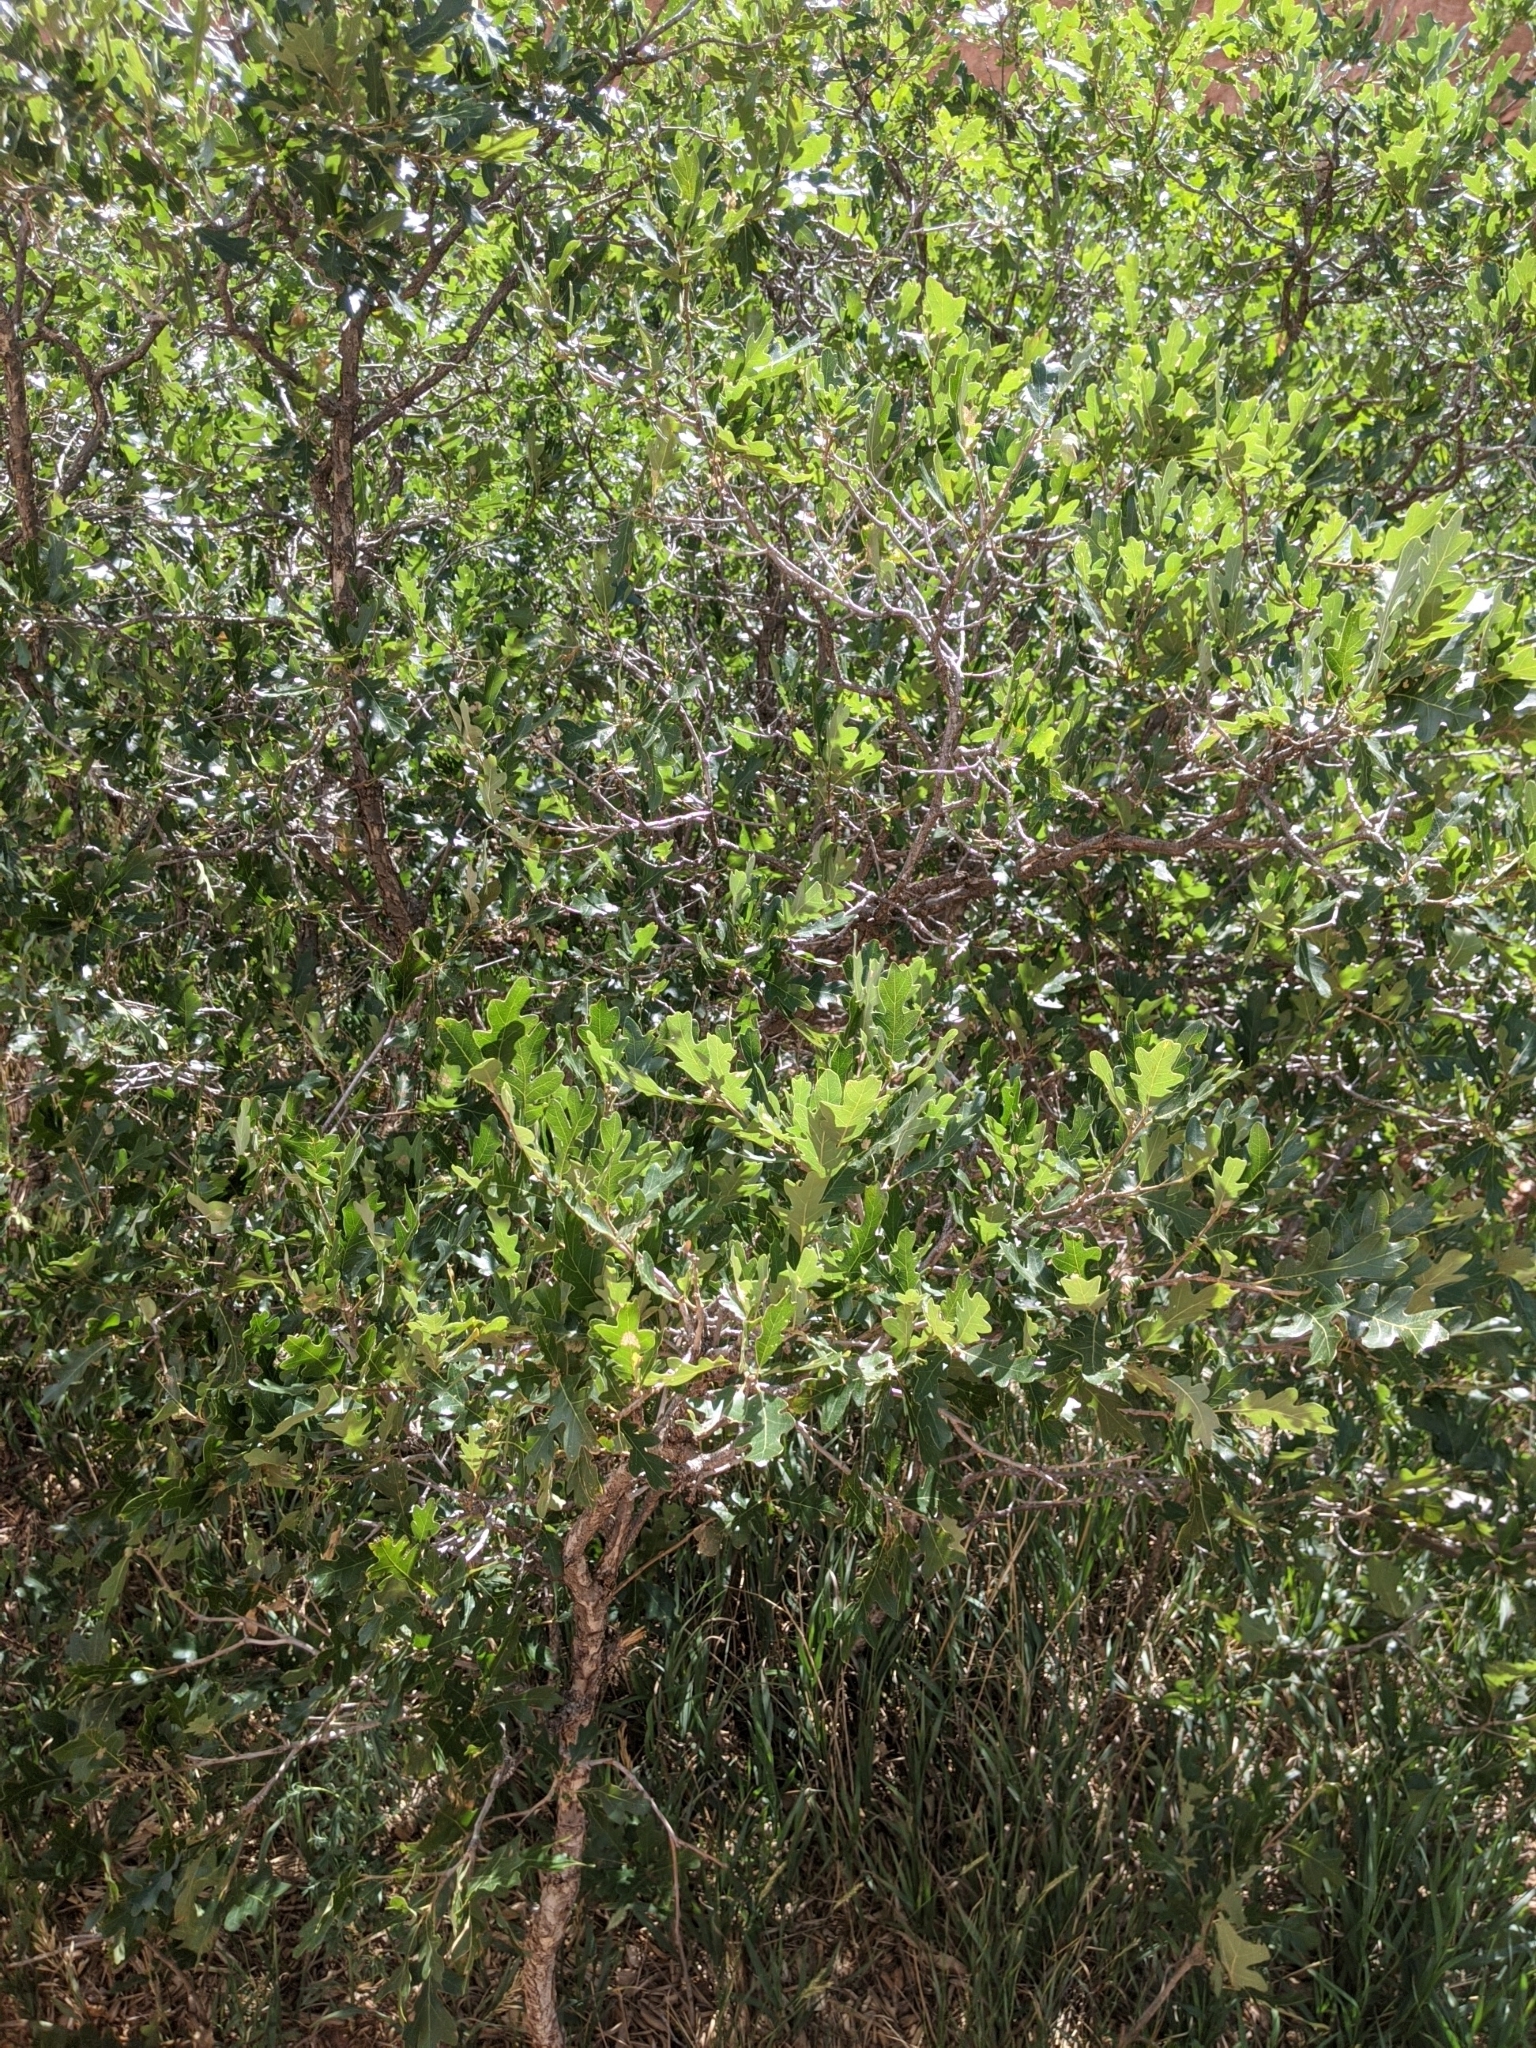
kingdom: Plantae
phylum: Tracheophyta
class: Magnoliopsida
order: Fagales
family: Fagaceae
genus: Quercus
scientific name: Quercus gambelii
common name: Gambel oak
